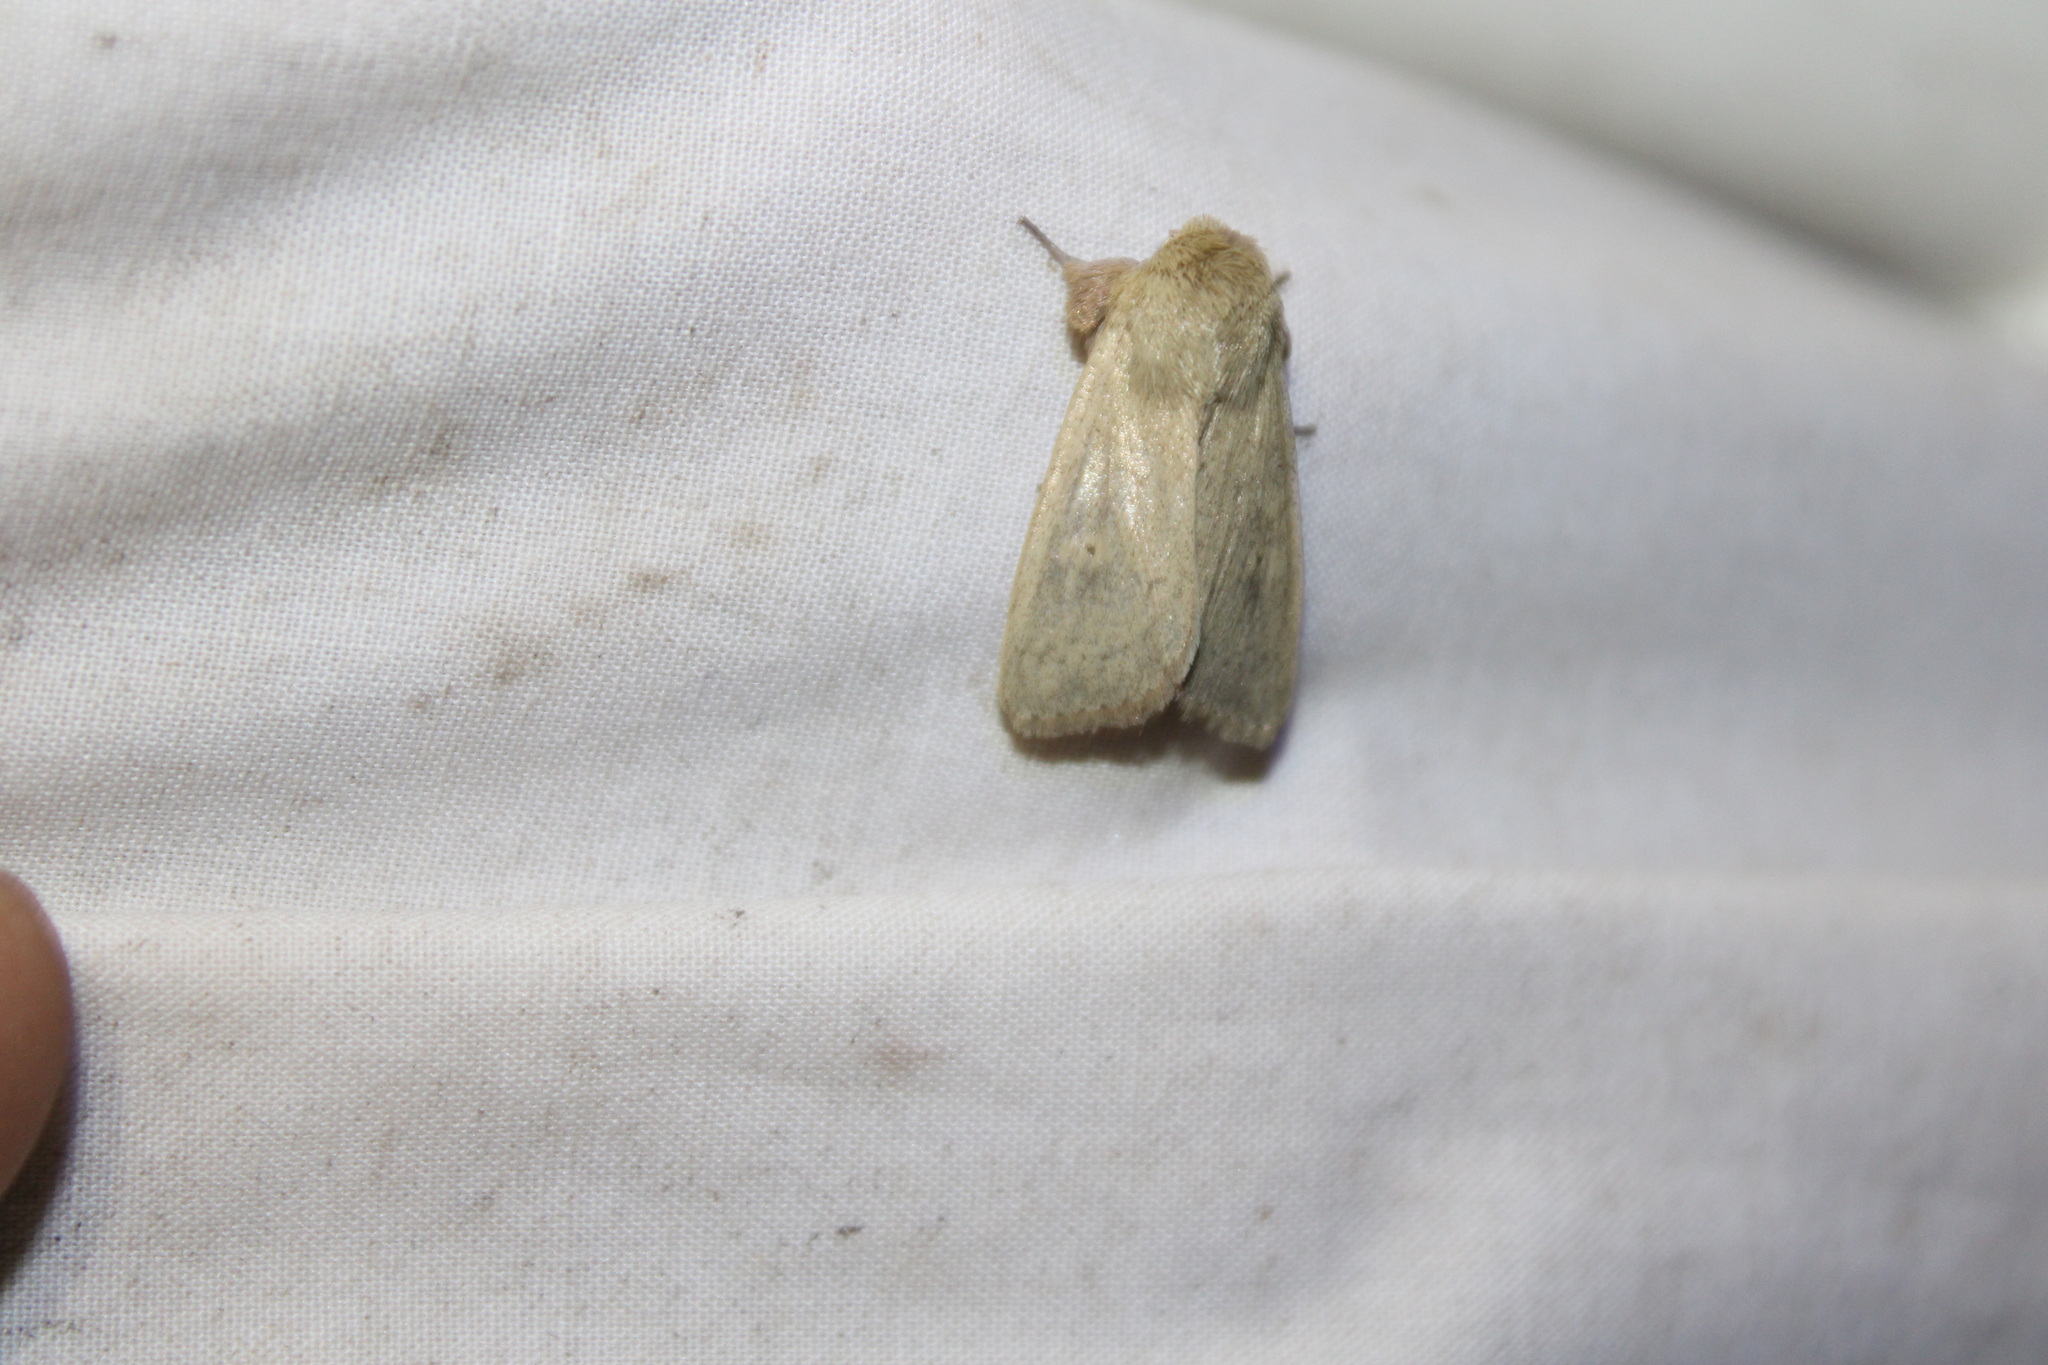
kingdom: Animalia
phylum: Arthropoda
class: Insecta
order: Lepidoptera
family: Noctuidae
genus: Leucania
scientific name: Leucania ursula
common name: Ursula wainscot
